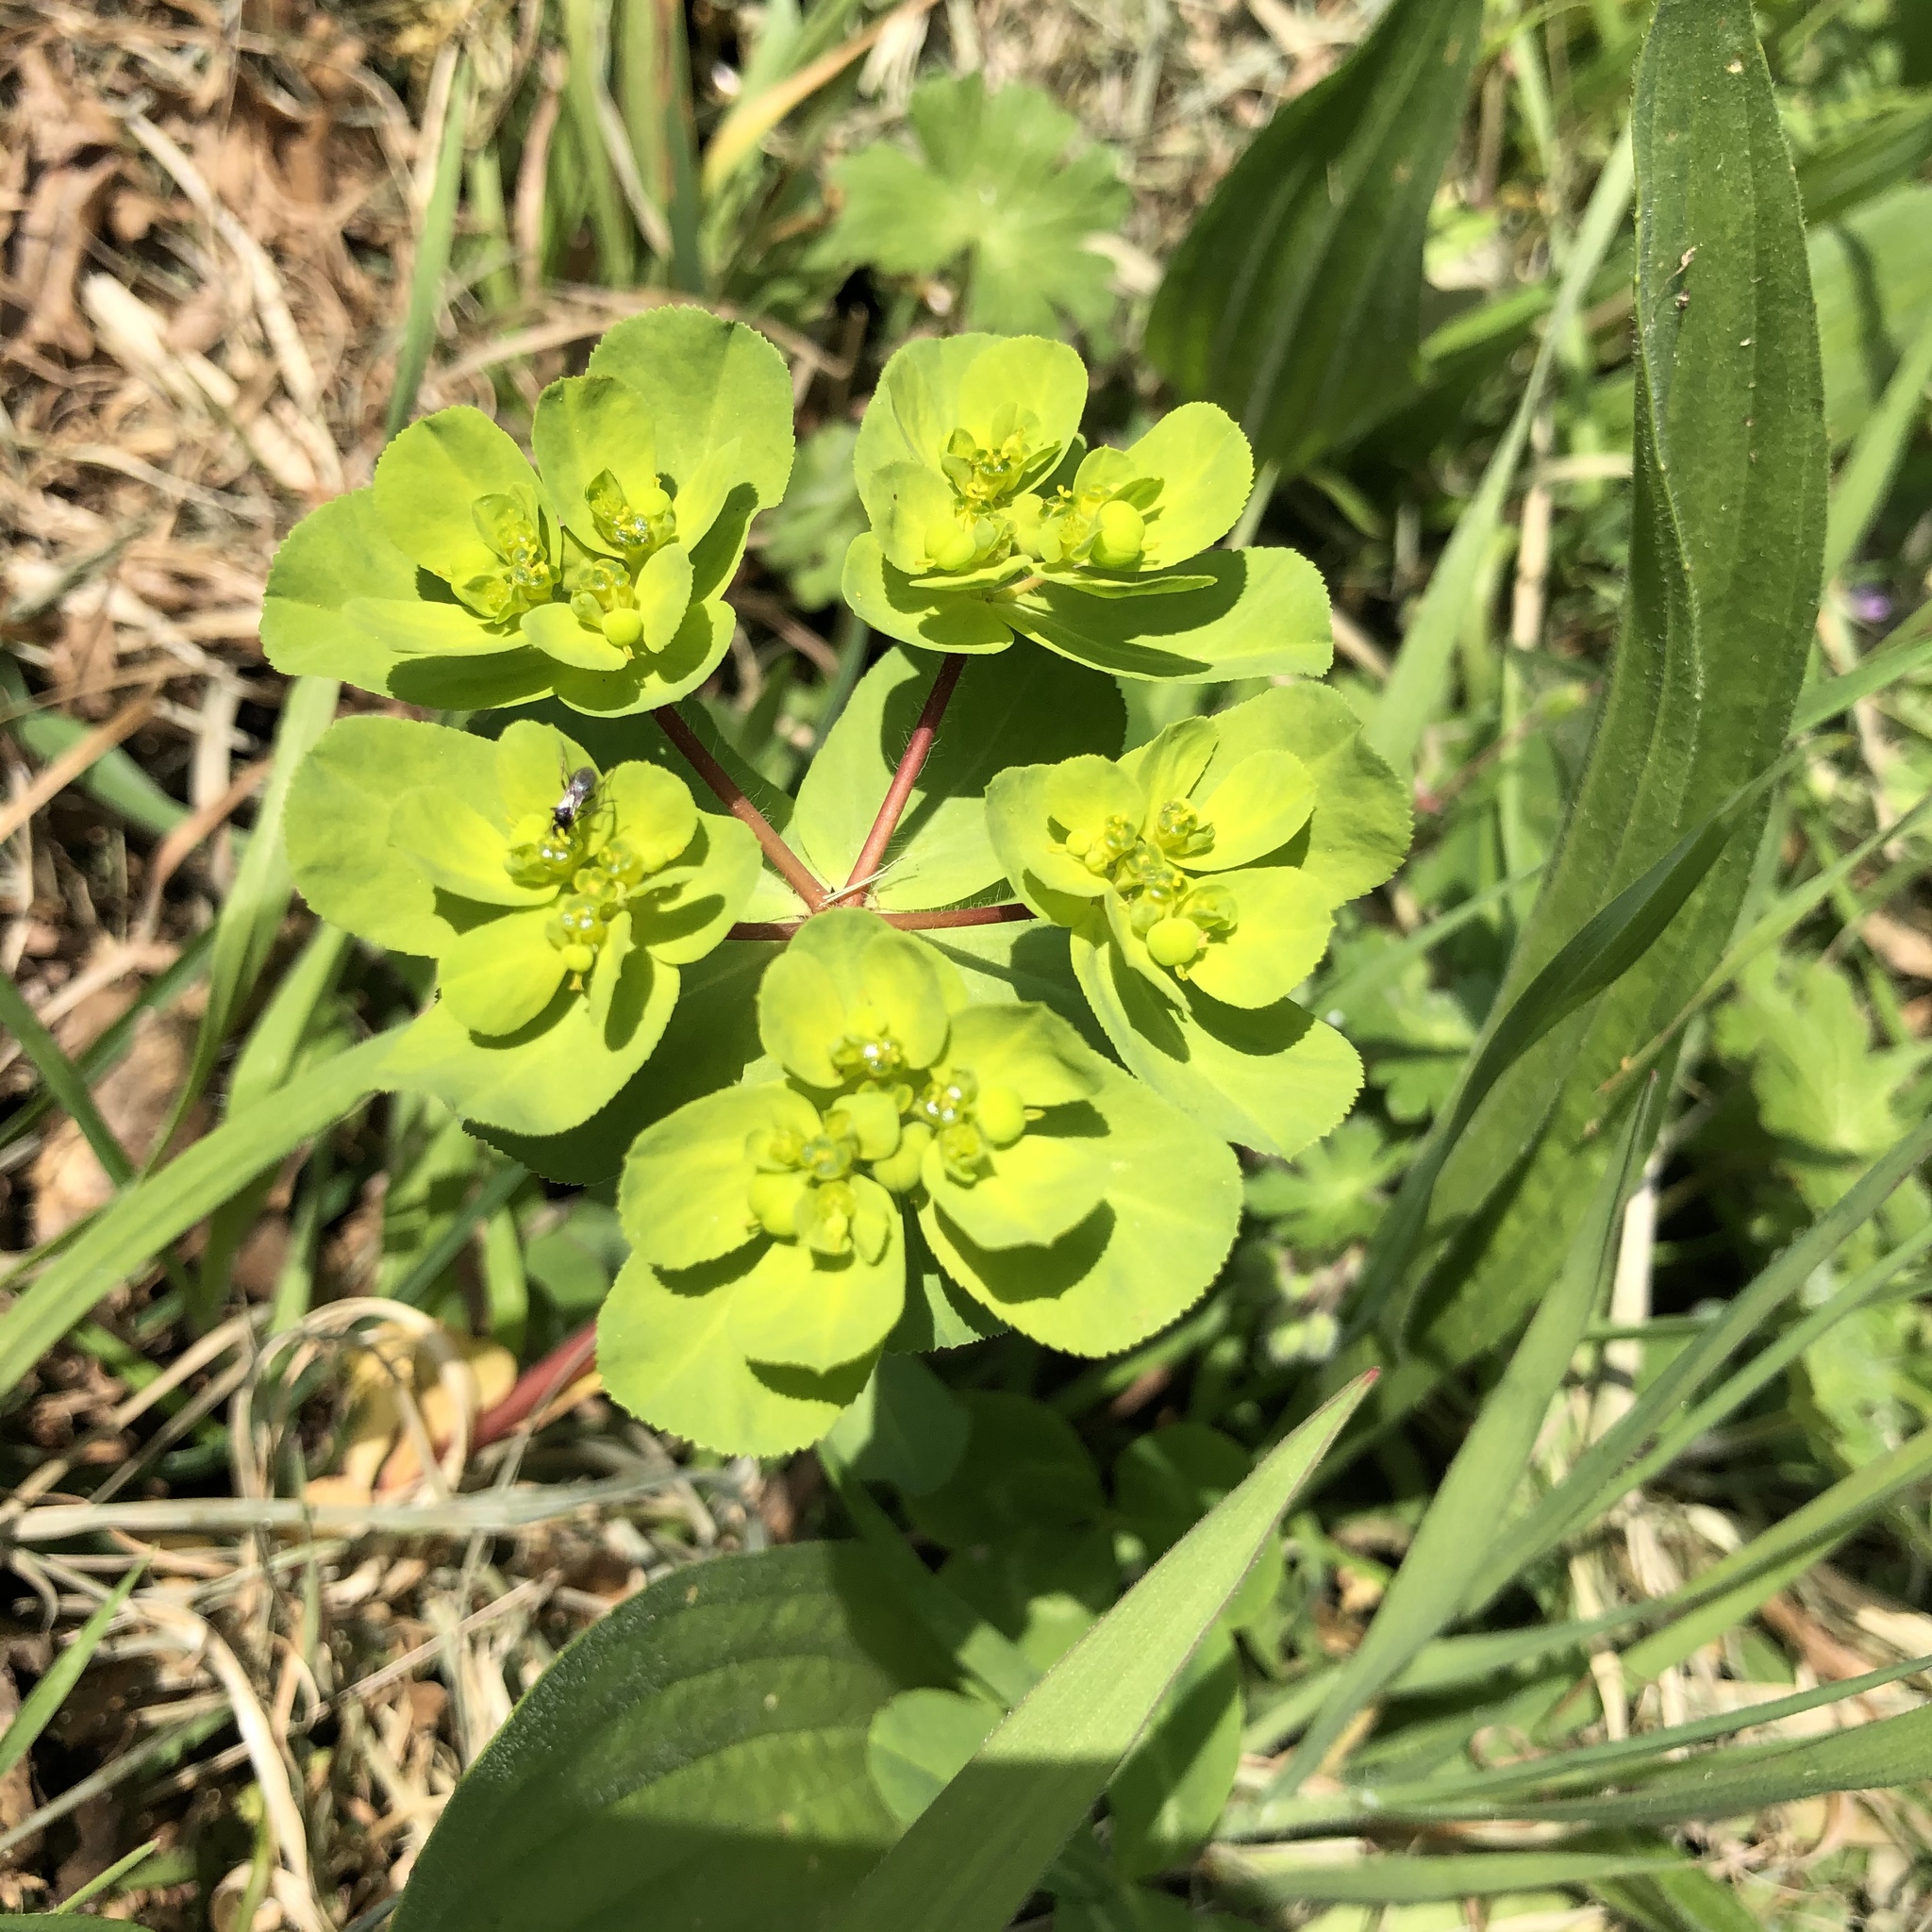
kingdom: Plantae
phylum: Tracheophyta
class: Magnoliopsida
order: Malpighiales
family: Euphorbiaceae
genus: Euphorbia
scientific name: Euphorbia helioscopia
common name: Sun spurge
